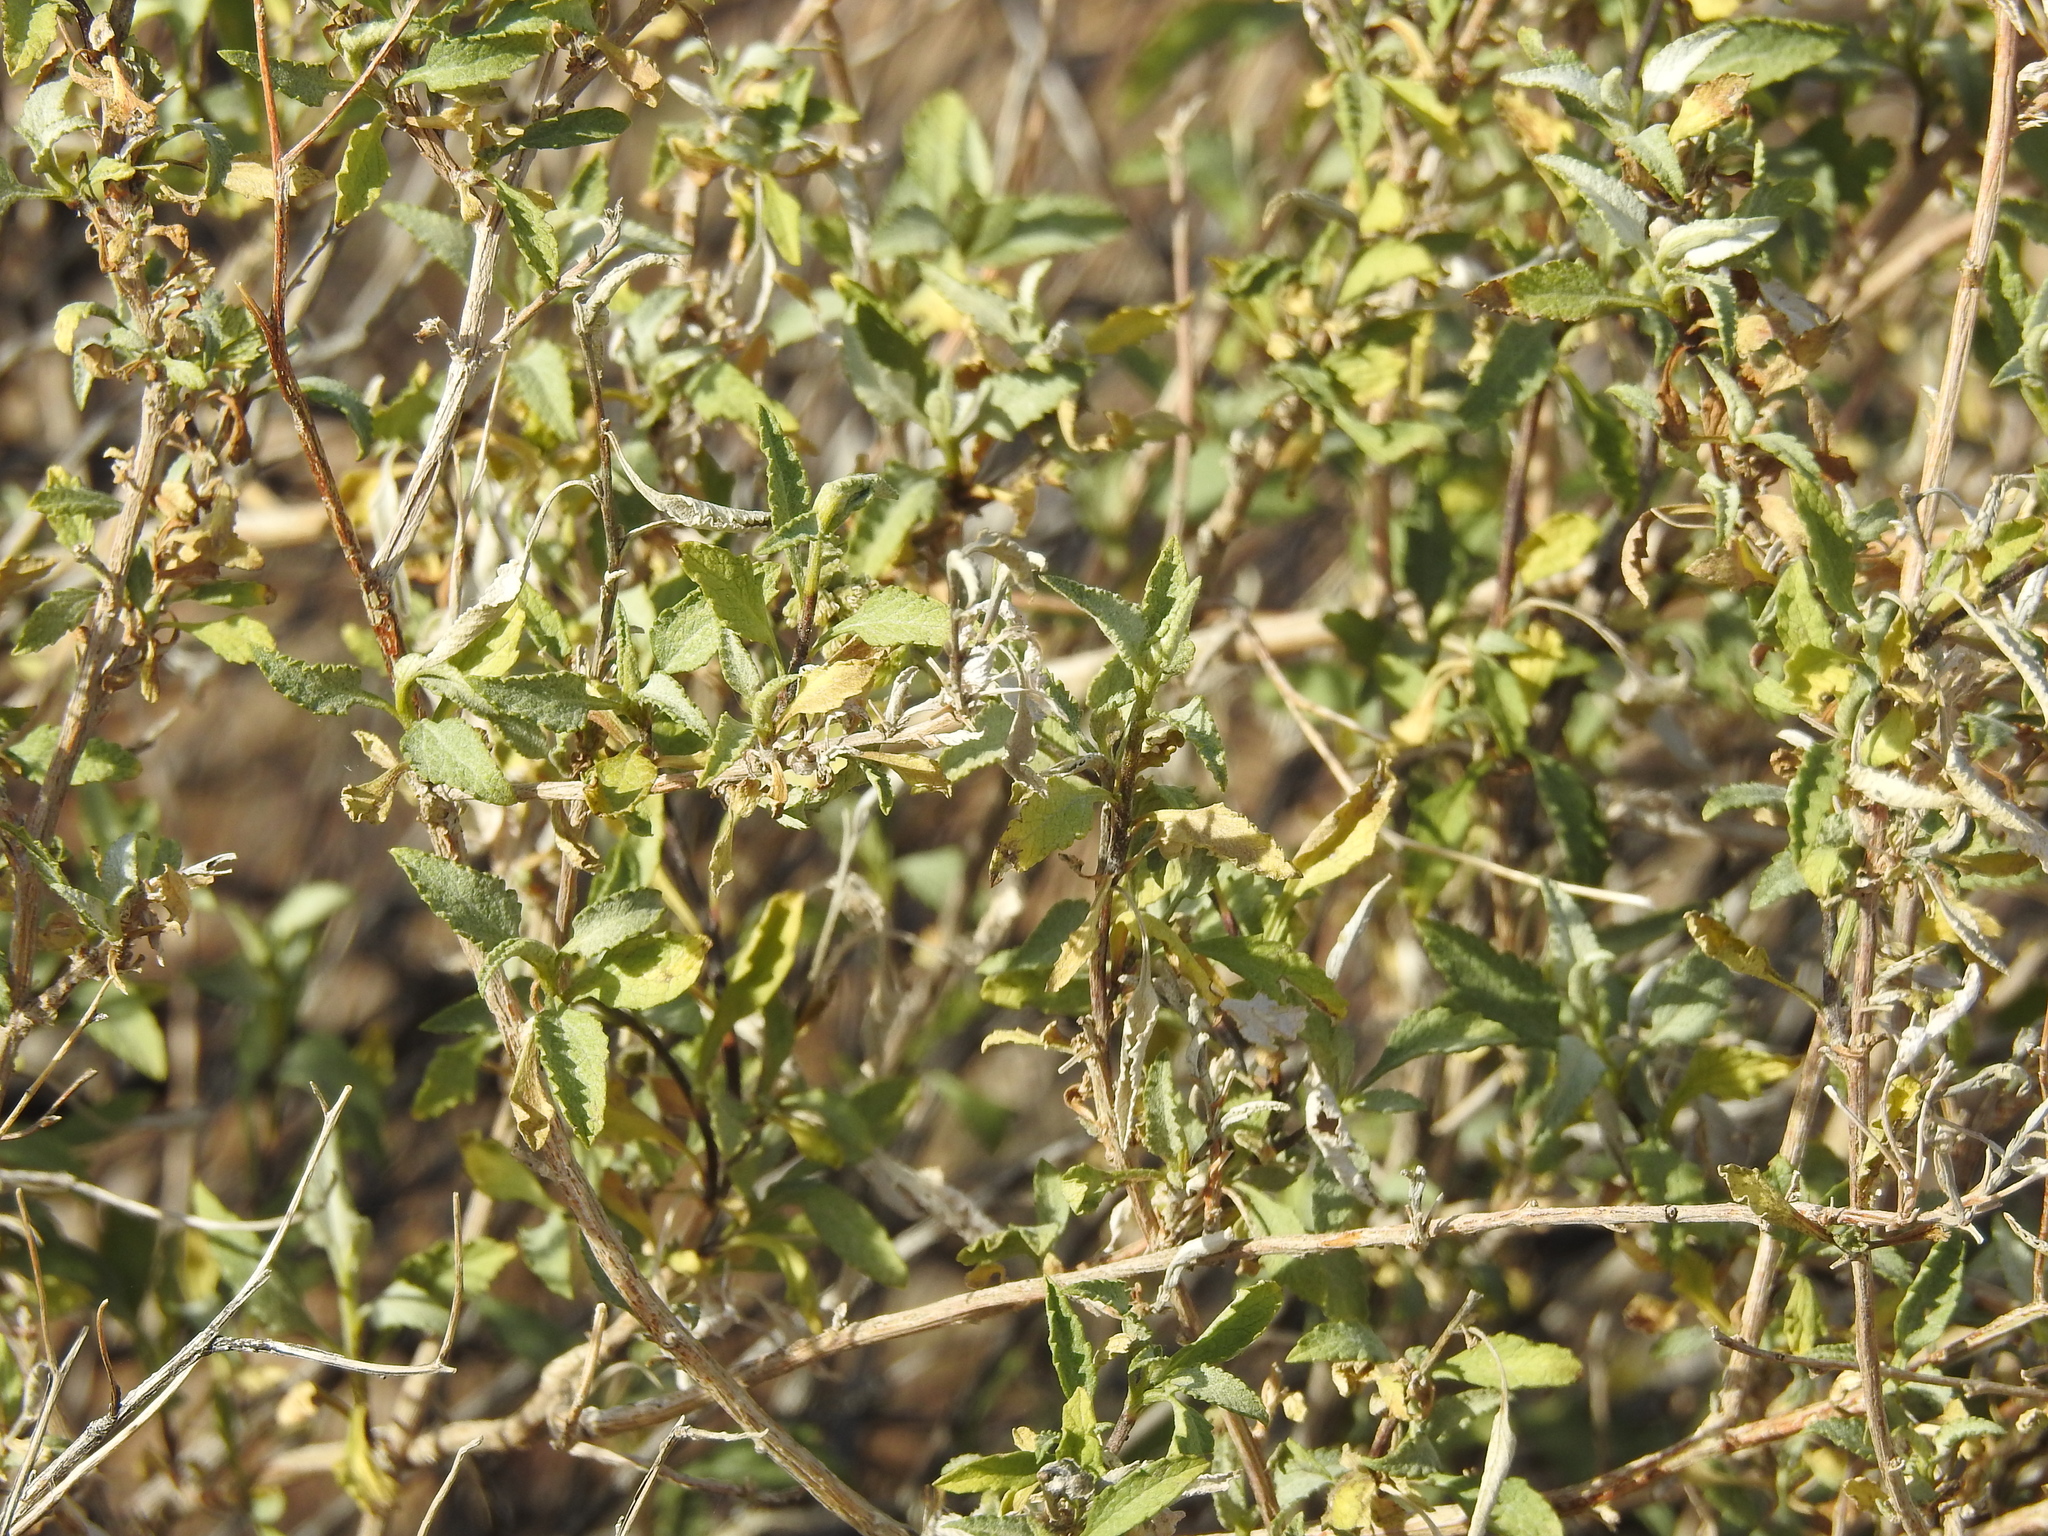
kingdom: Plantae
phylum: Tracheophyta
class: Magnoliopsida
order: Asterales
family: Asteraceae
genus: Ambrosia
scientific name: Ambrosia deltoidea
